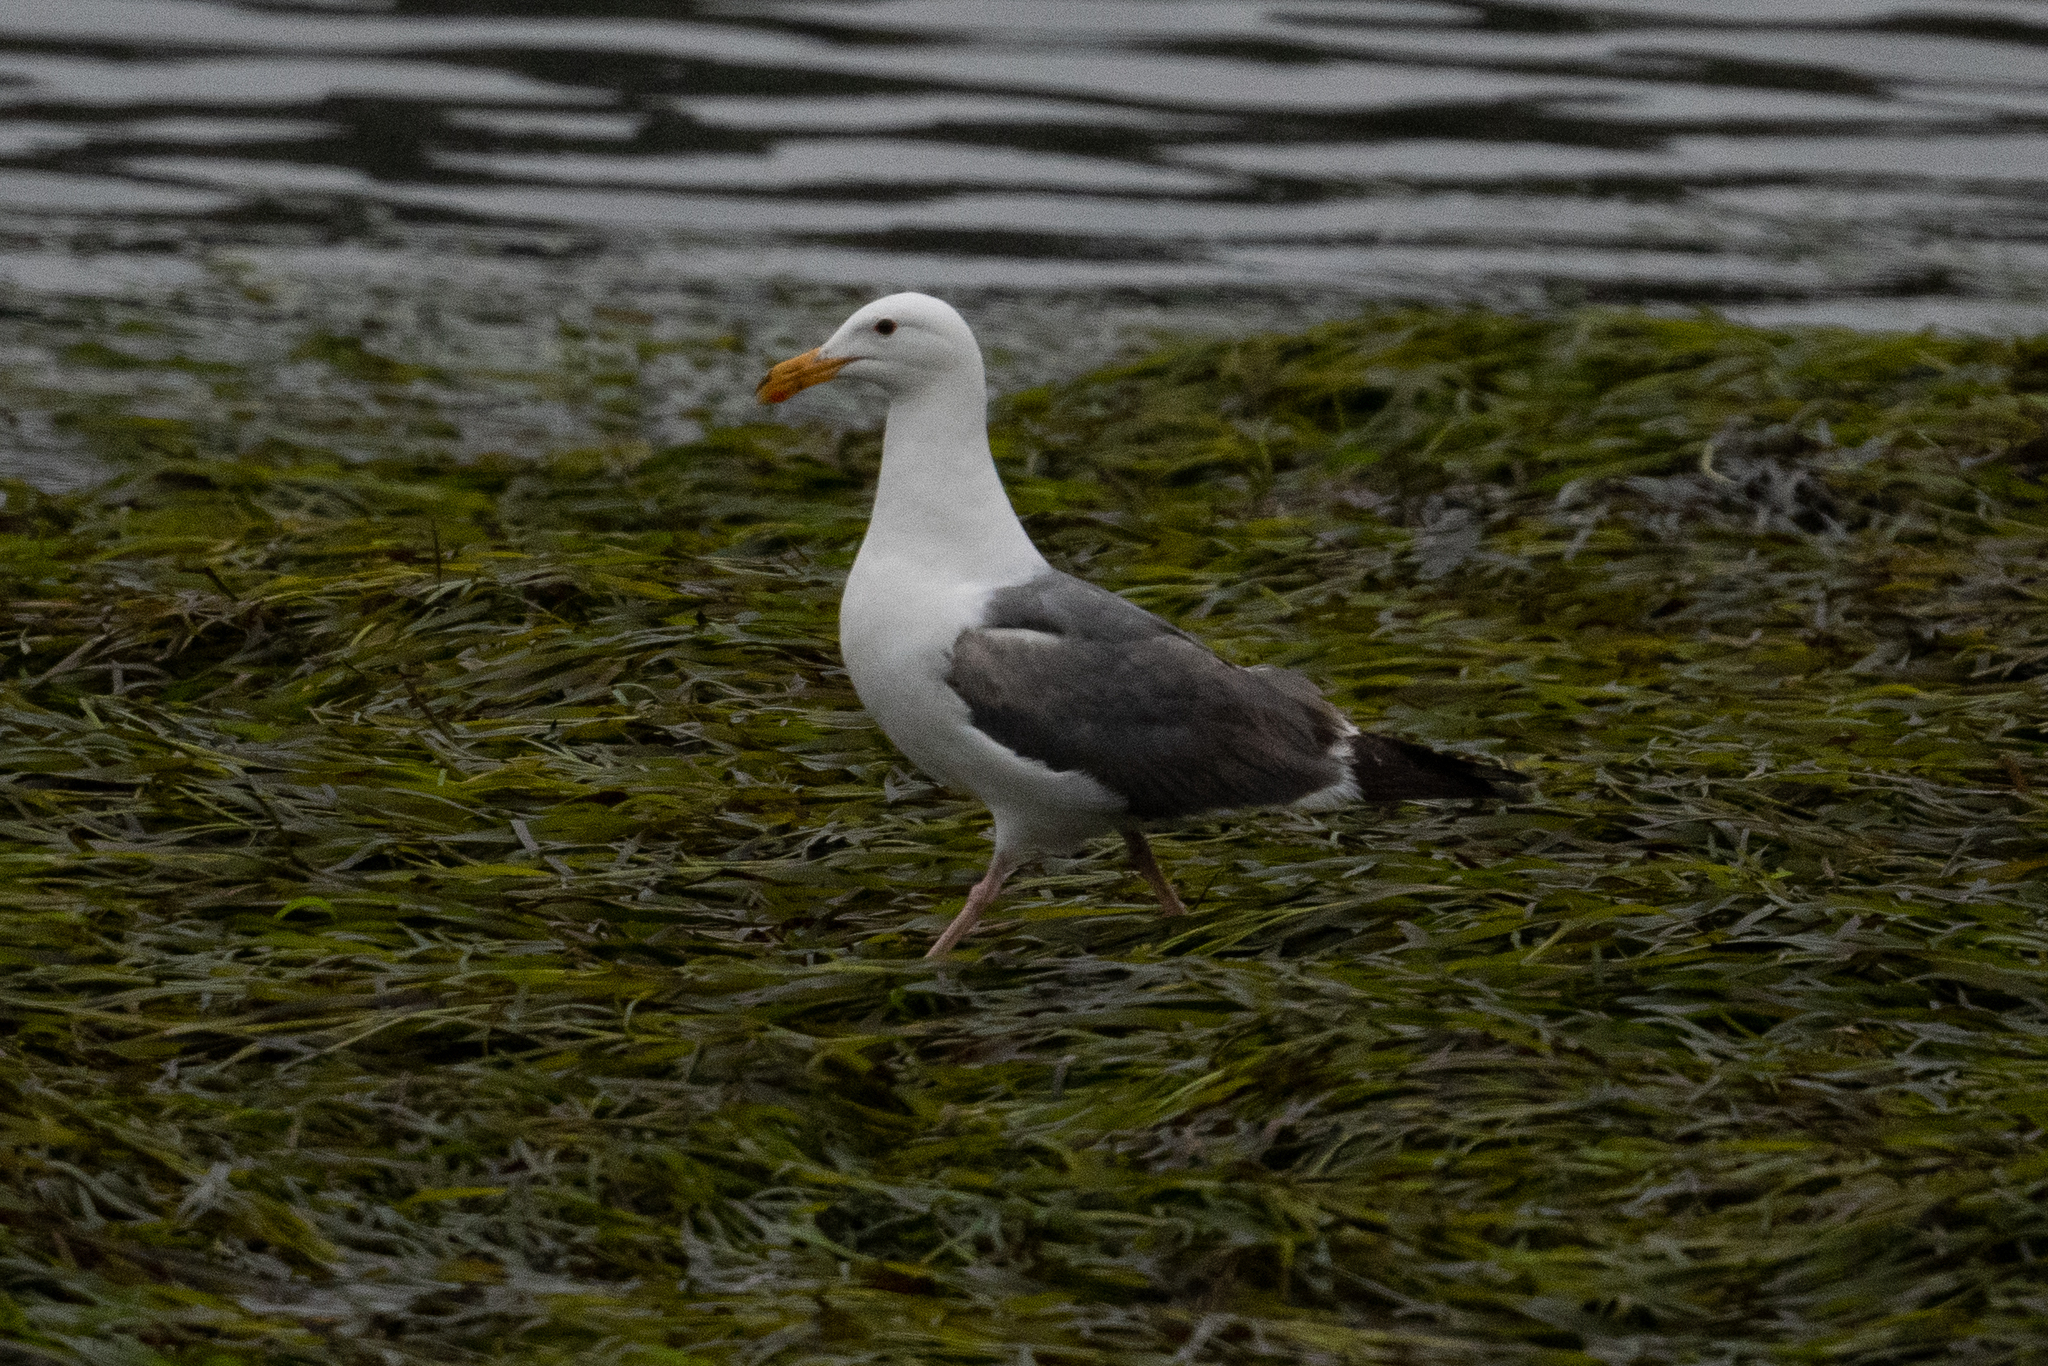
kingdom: Animalia
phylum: Chordata
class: Aves
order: Charadriiformes
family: Laridae
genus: Larus
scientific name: Larus occidentalis
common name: Western gull
